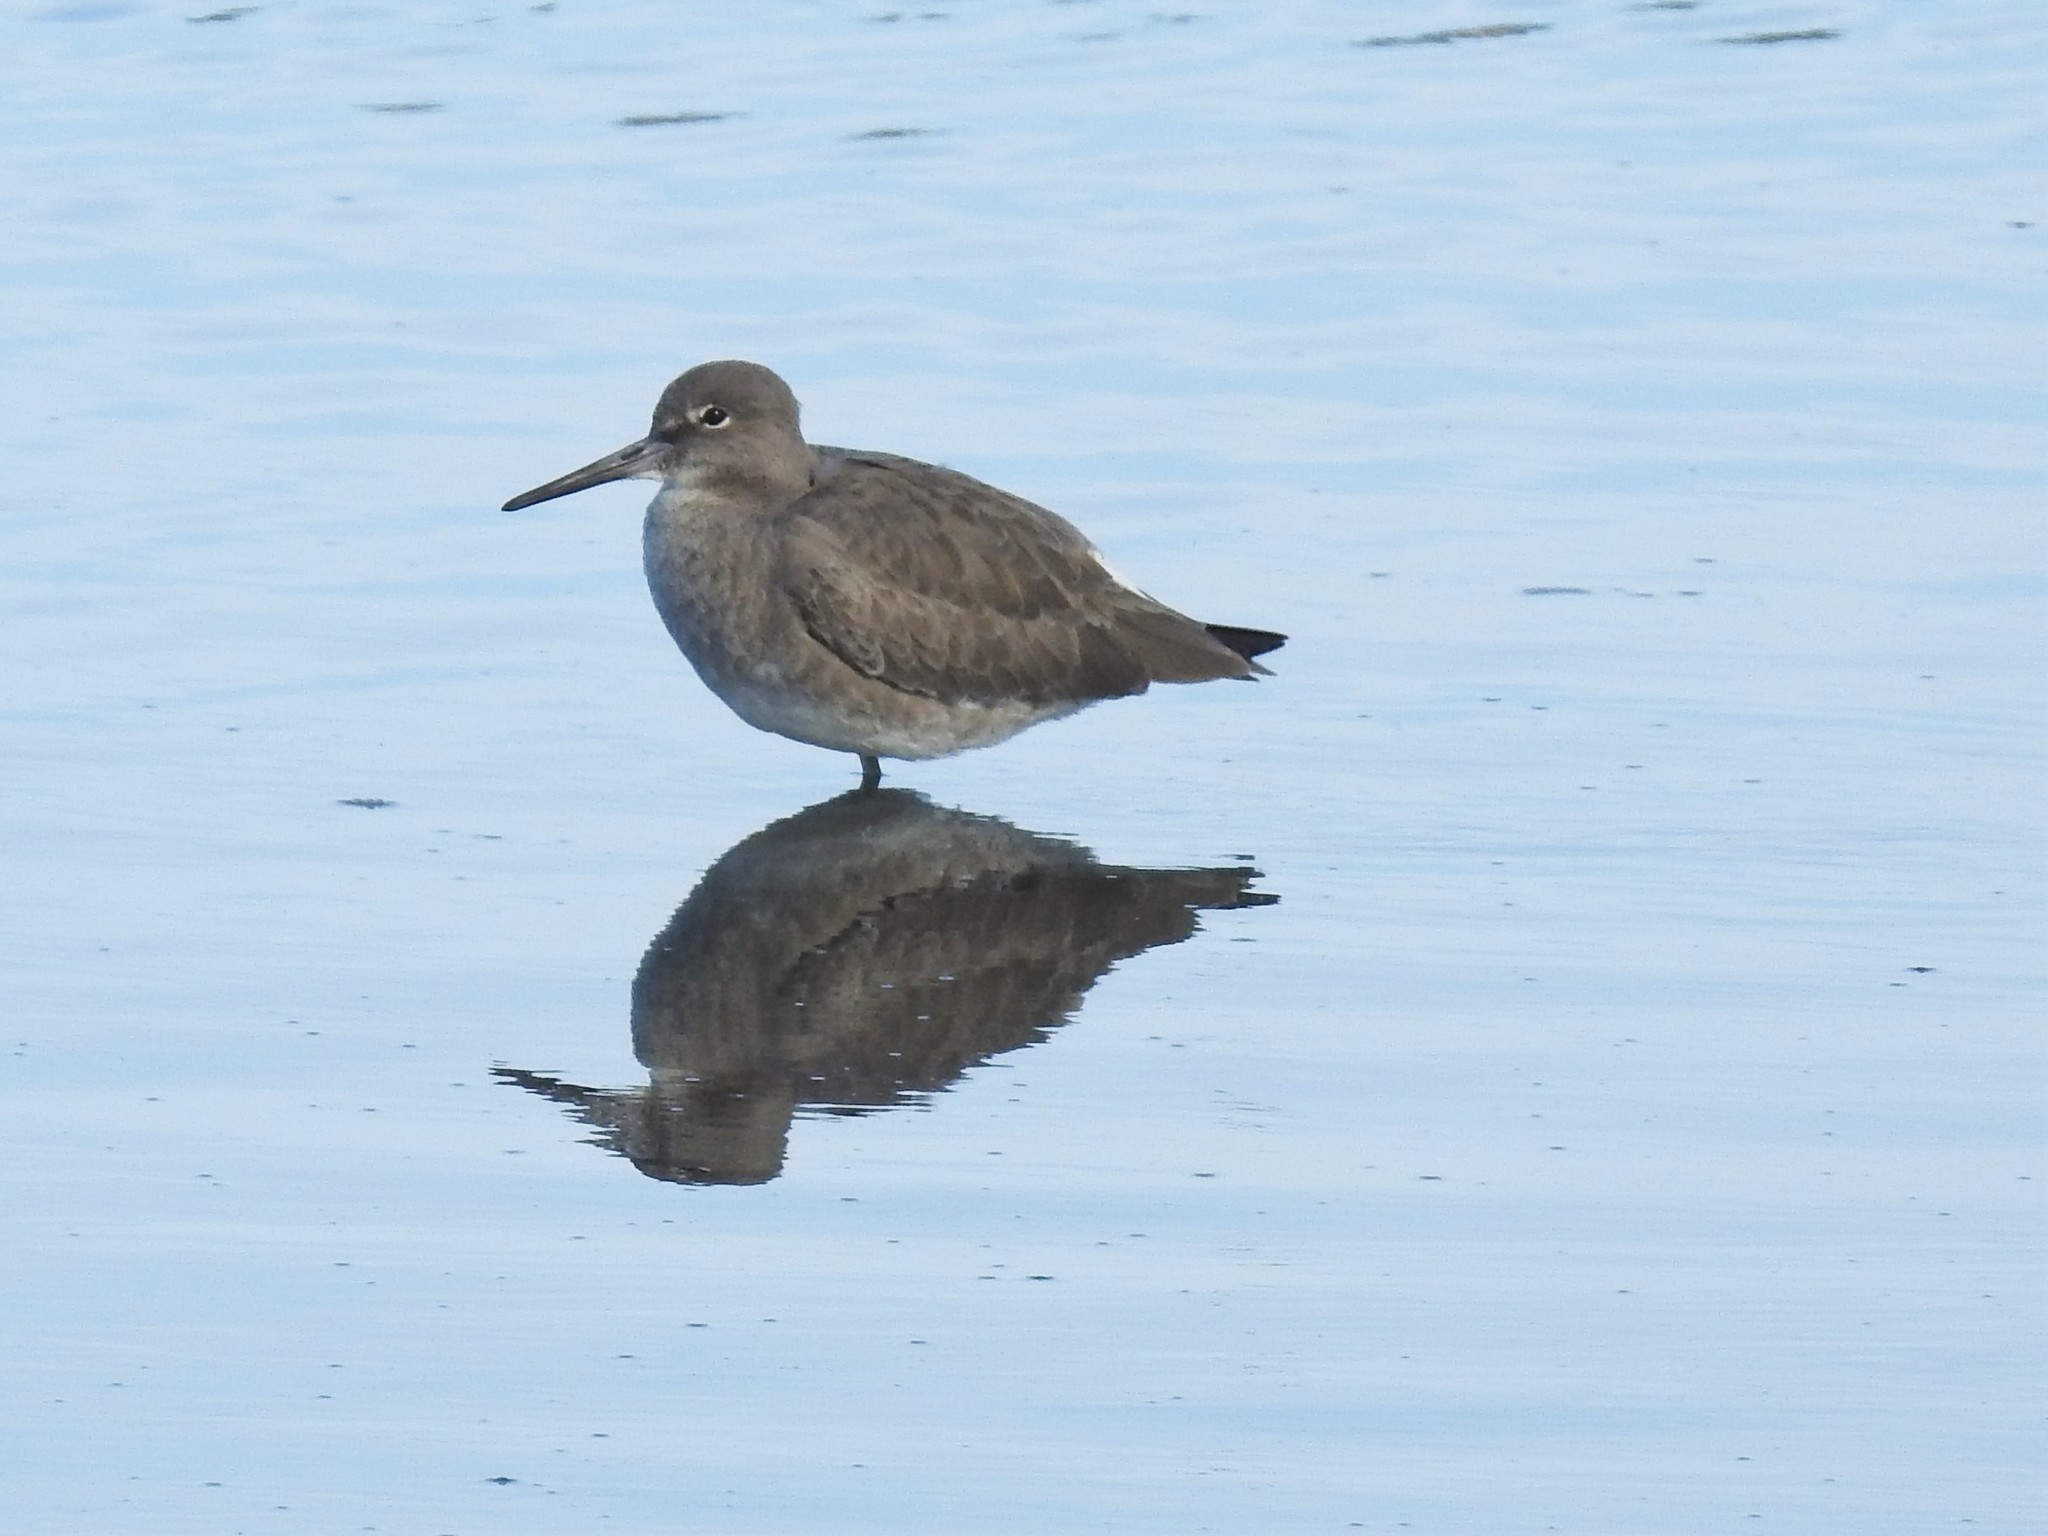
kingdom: Animalia
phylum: Chordata
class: Aves
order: Charadriiformes
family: Scolopacidae
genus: Tringa
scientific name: Tringa semipalmata
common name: Willet
